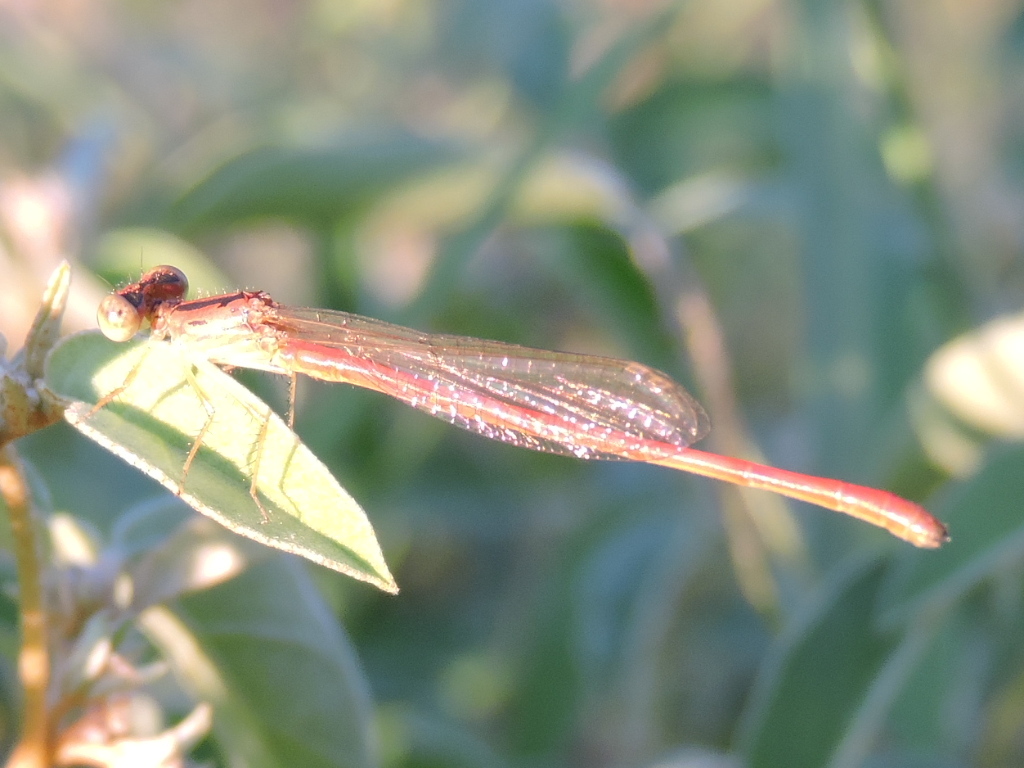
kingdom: Animalia
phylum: Arthropoda
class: Insecta
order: Odonata
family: Coenagrionidae
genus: Telebasis
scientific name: Telebasis salva
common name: Desert firetail
